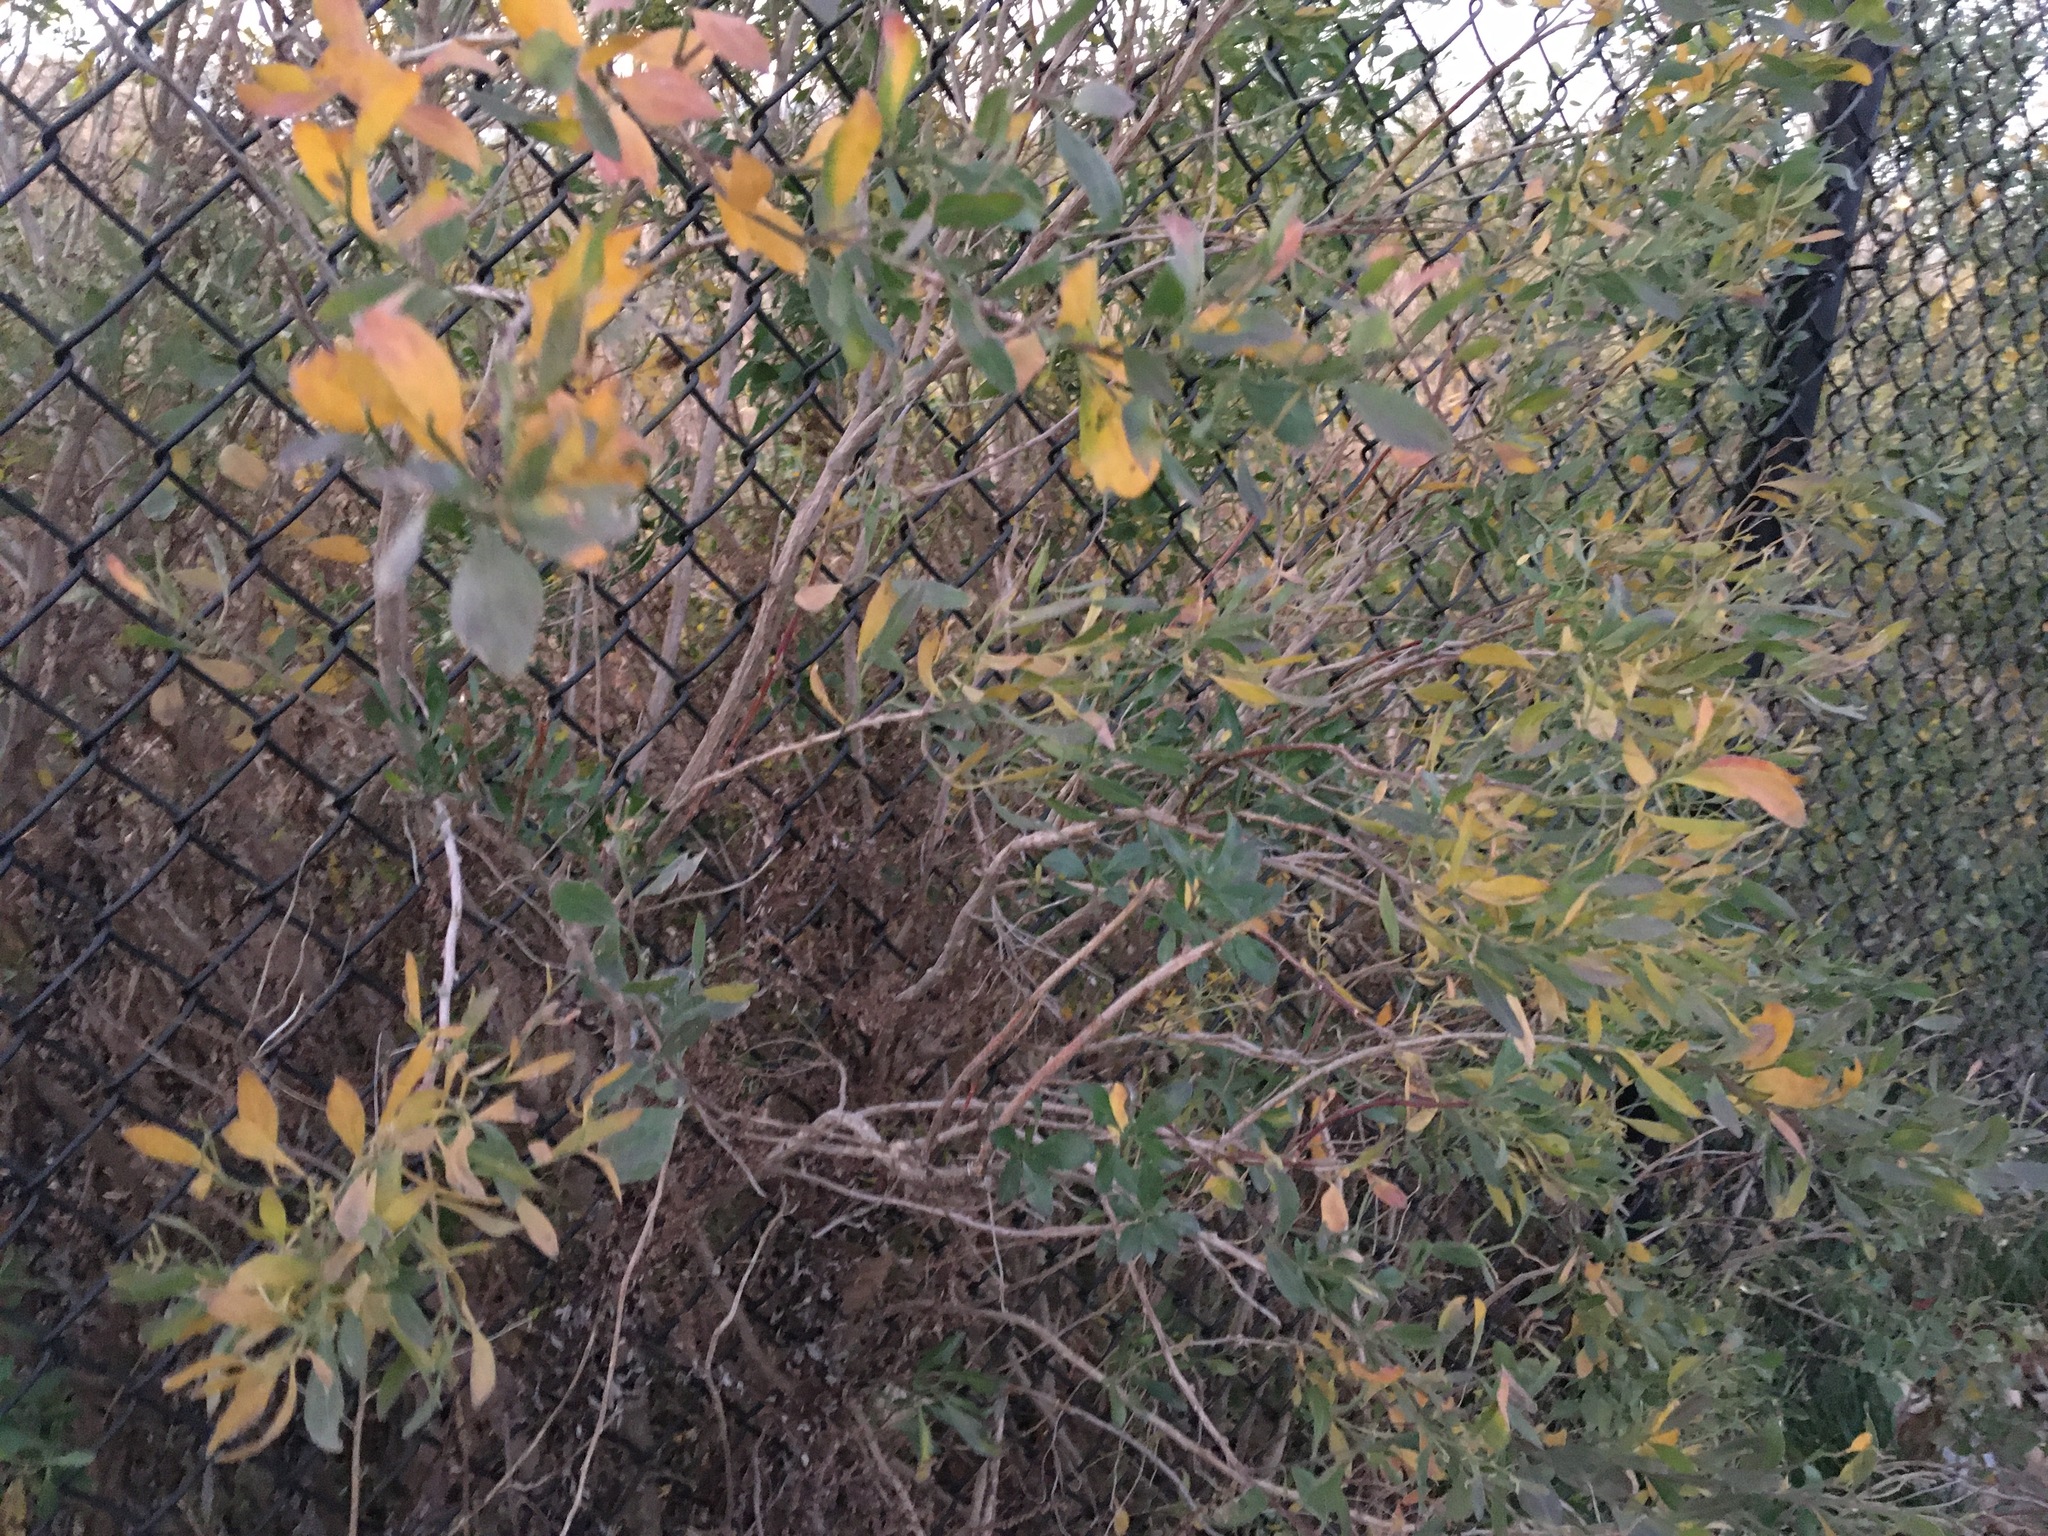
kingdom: Plantae
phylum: Tracheophyta
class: Magnoliopsida
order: Asterales
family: Asteraceae
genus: Baccharis
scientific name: Baccharis halimifolia
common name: Eastern baccharis
